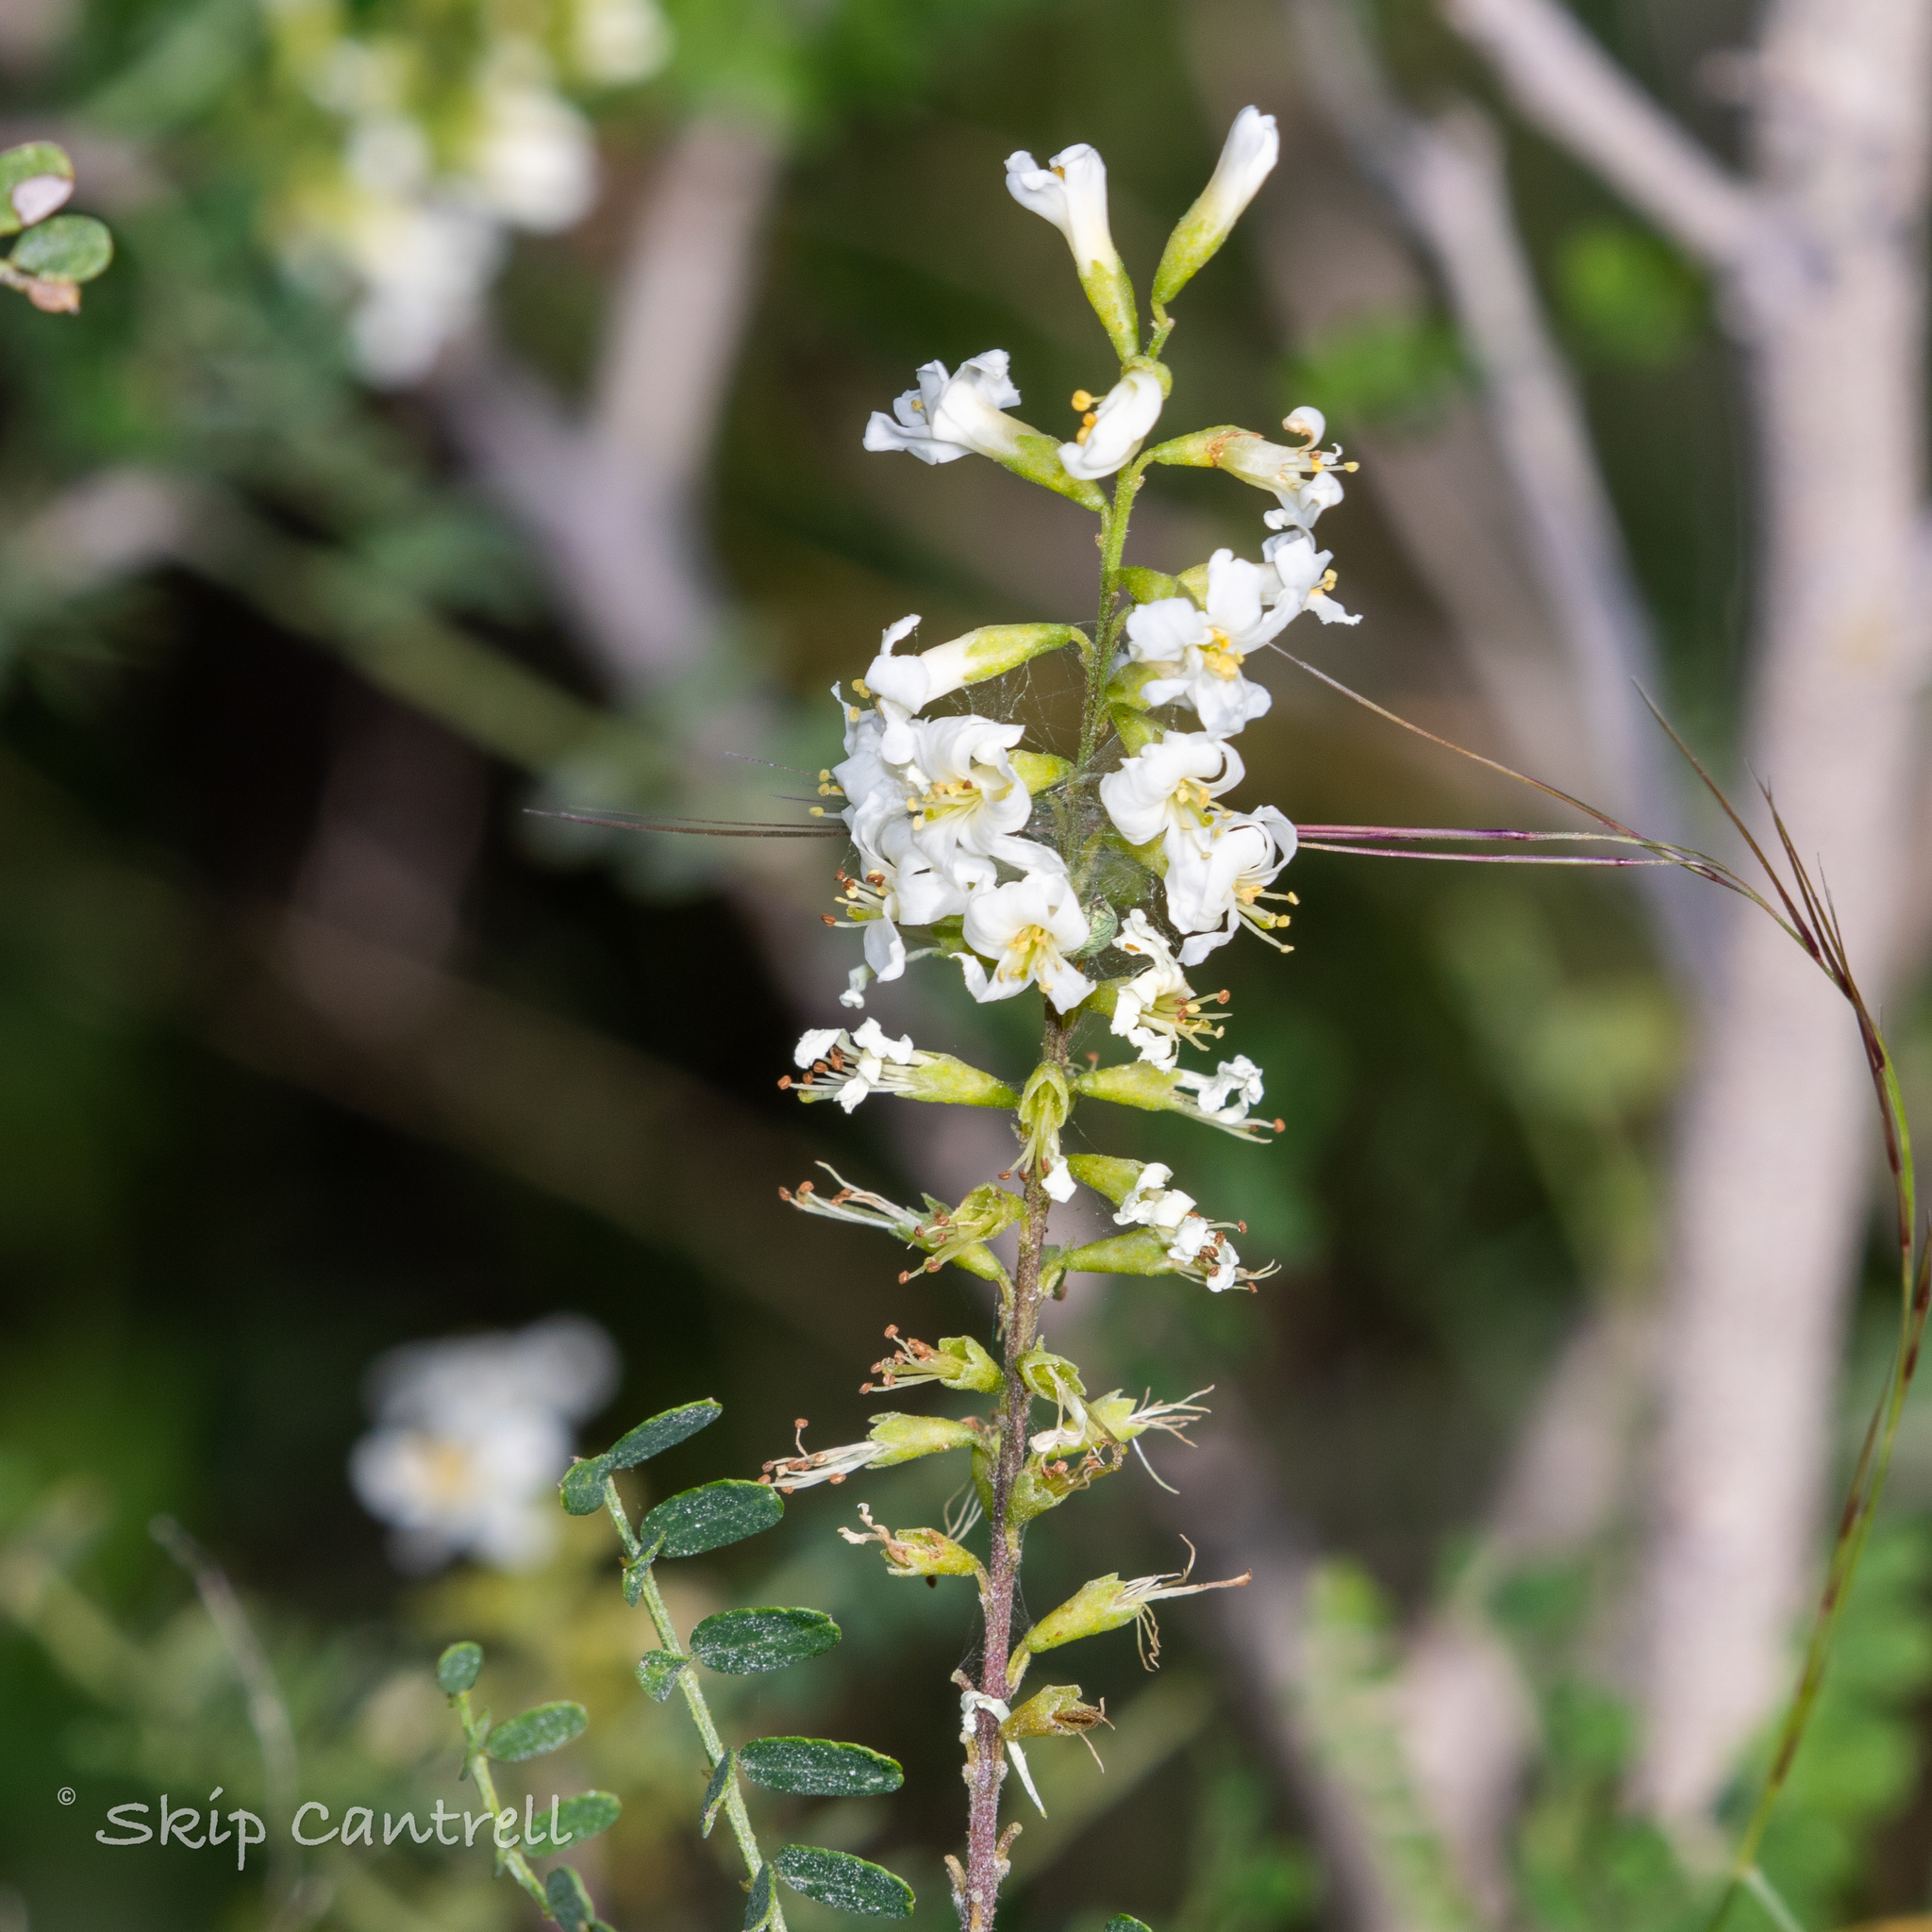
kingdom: Plantae
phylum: Tracheophyta
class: Magnoliopsida
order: Fabales
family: Fabaceae
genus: Eysenhardtia
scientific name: Eysenhardtia texana
